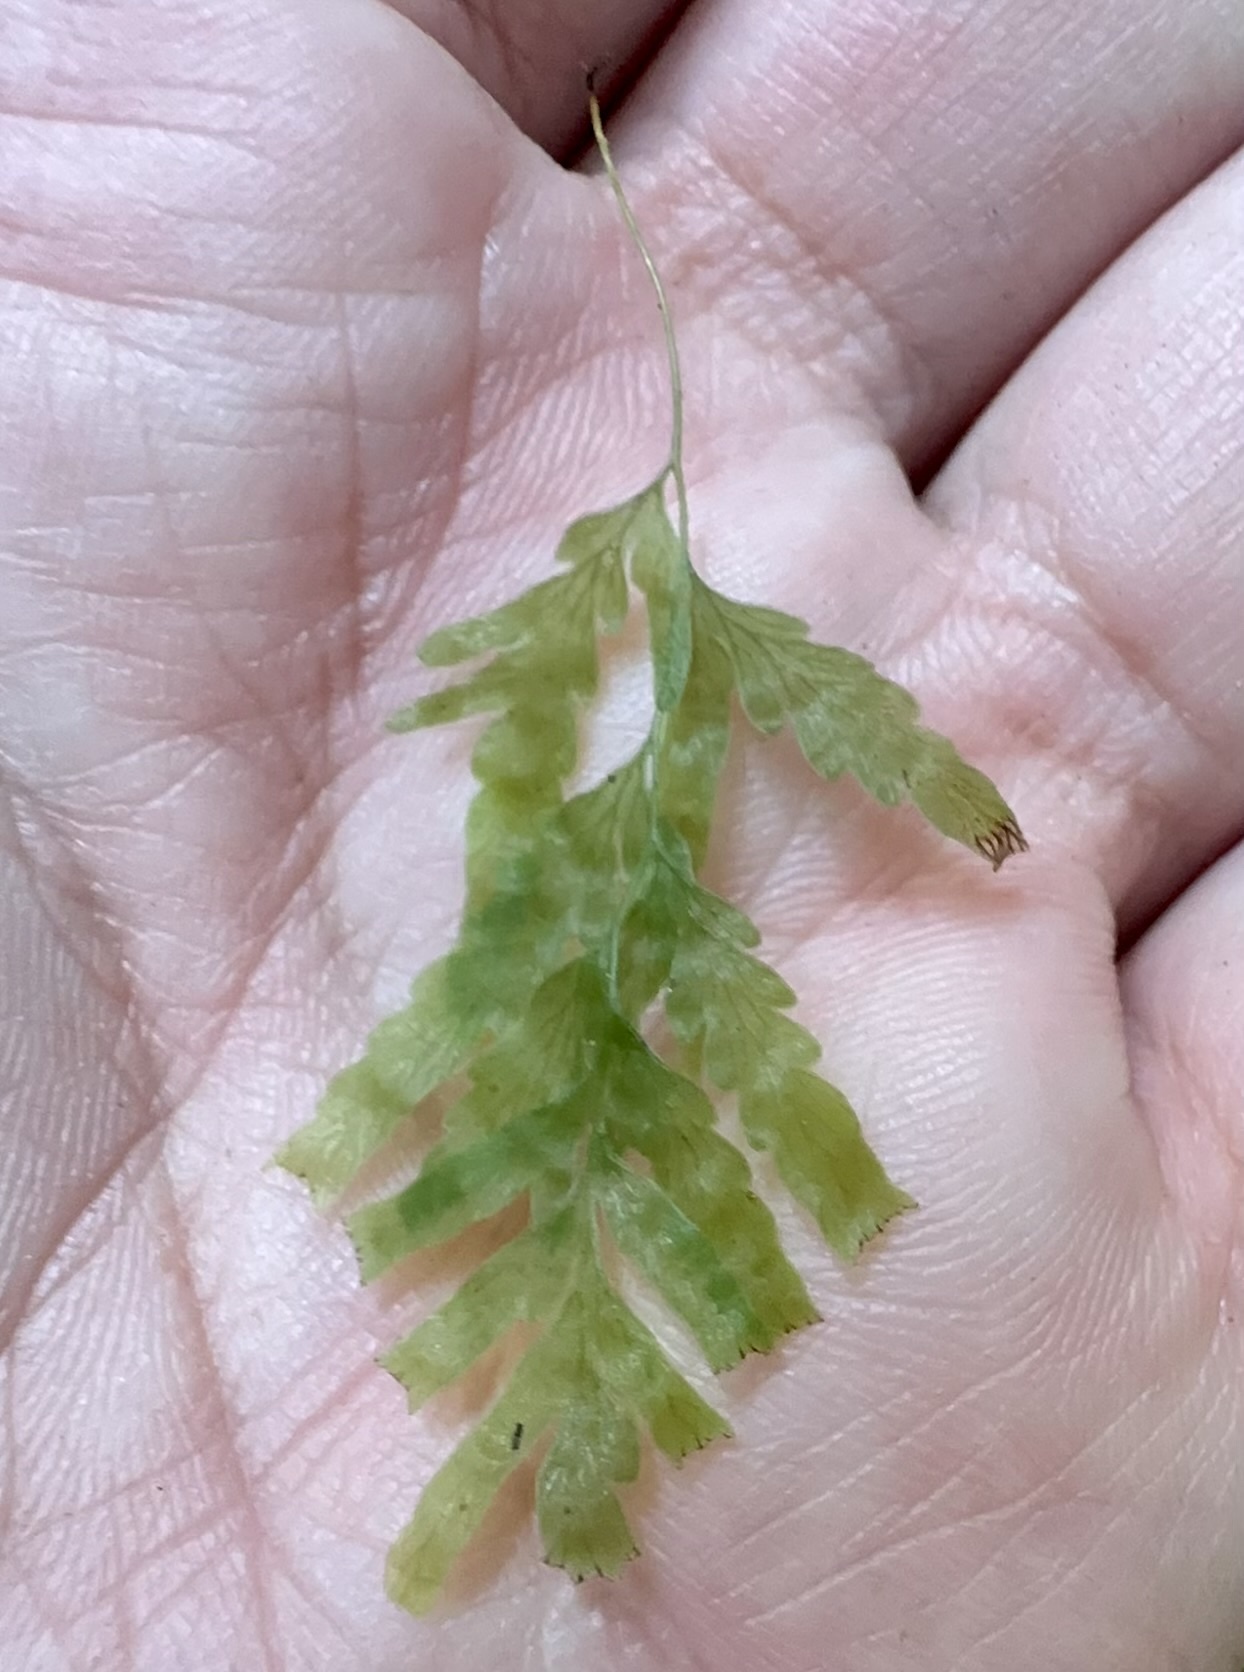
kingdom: Plantae
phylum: Tracheophyta
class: Polypodiopsida
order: Hymenophyllales
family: Hymenophyllaceae
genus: Polyphlebium
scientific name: Polyphlebium venosum
